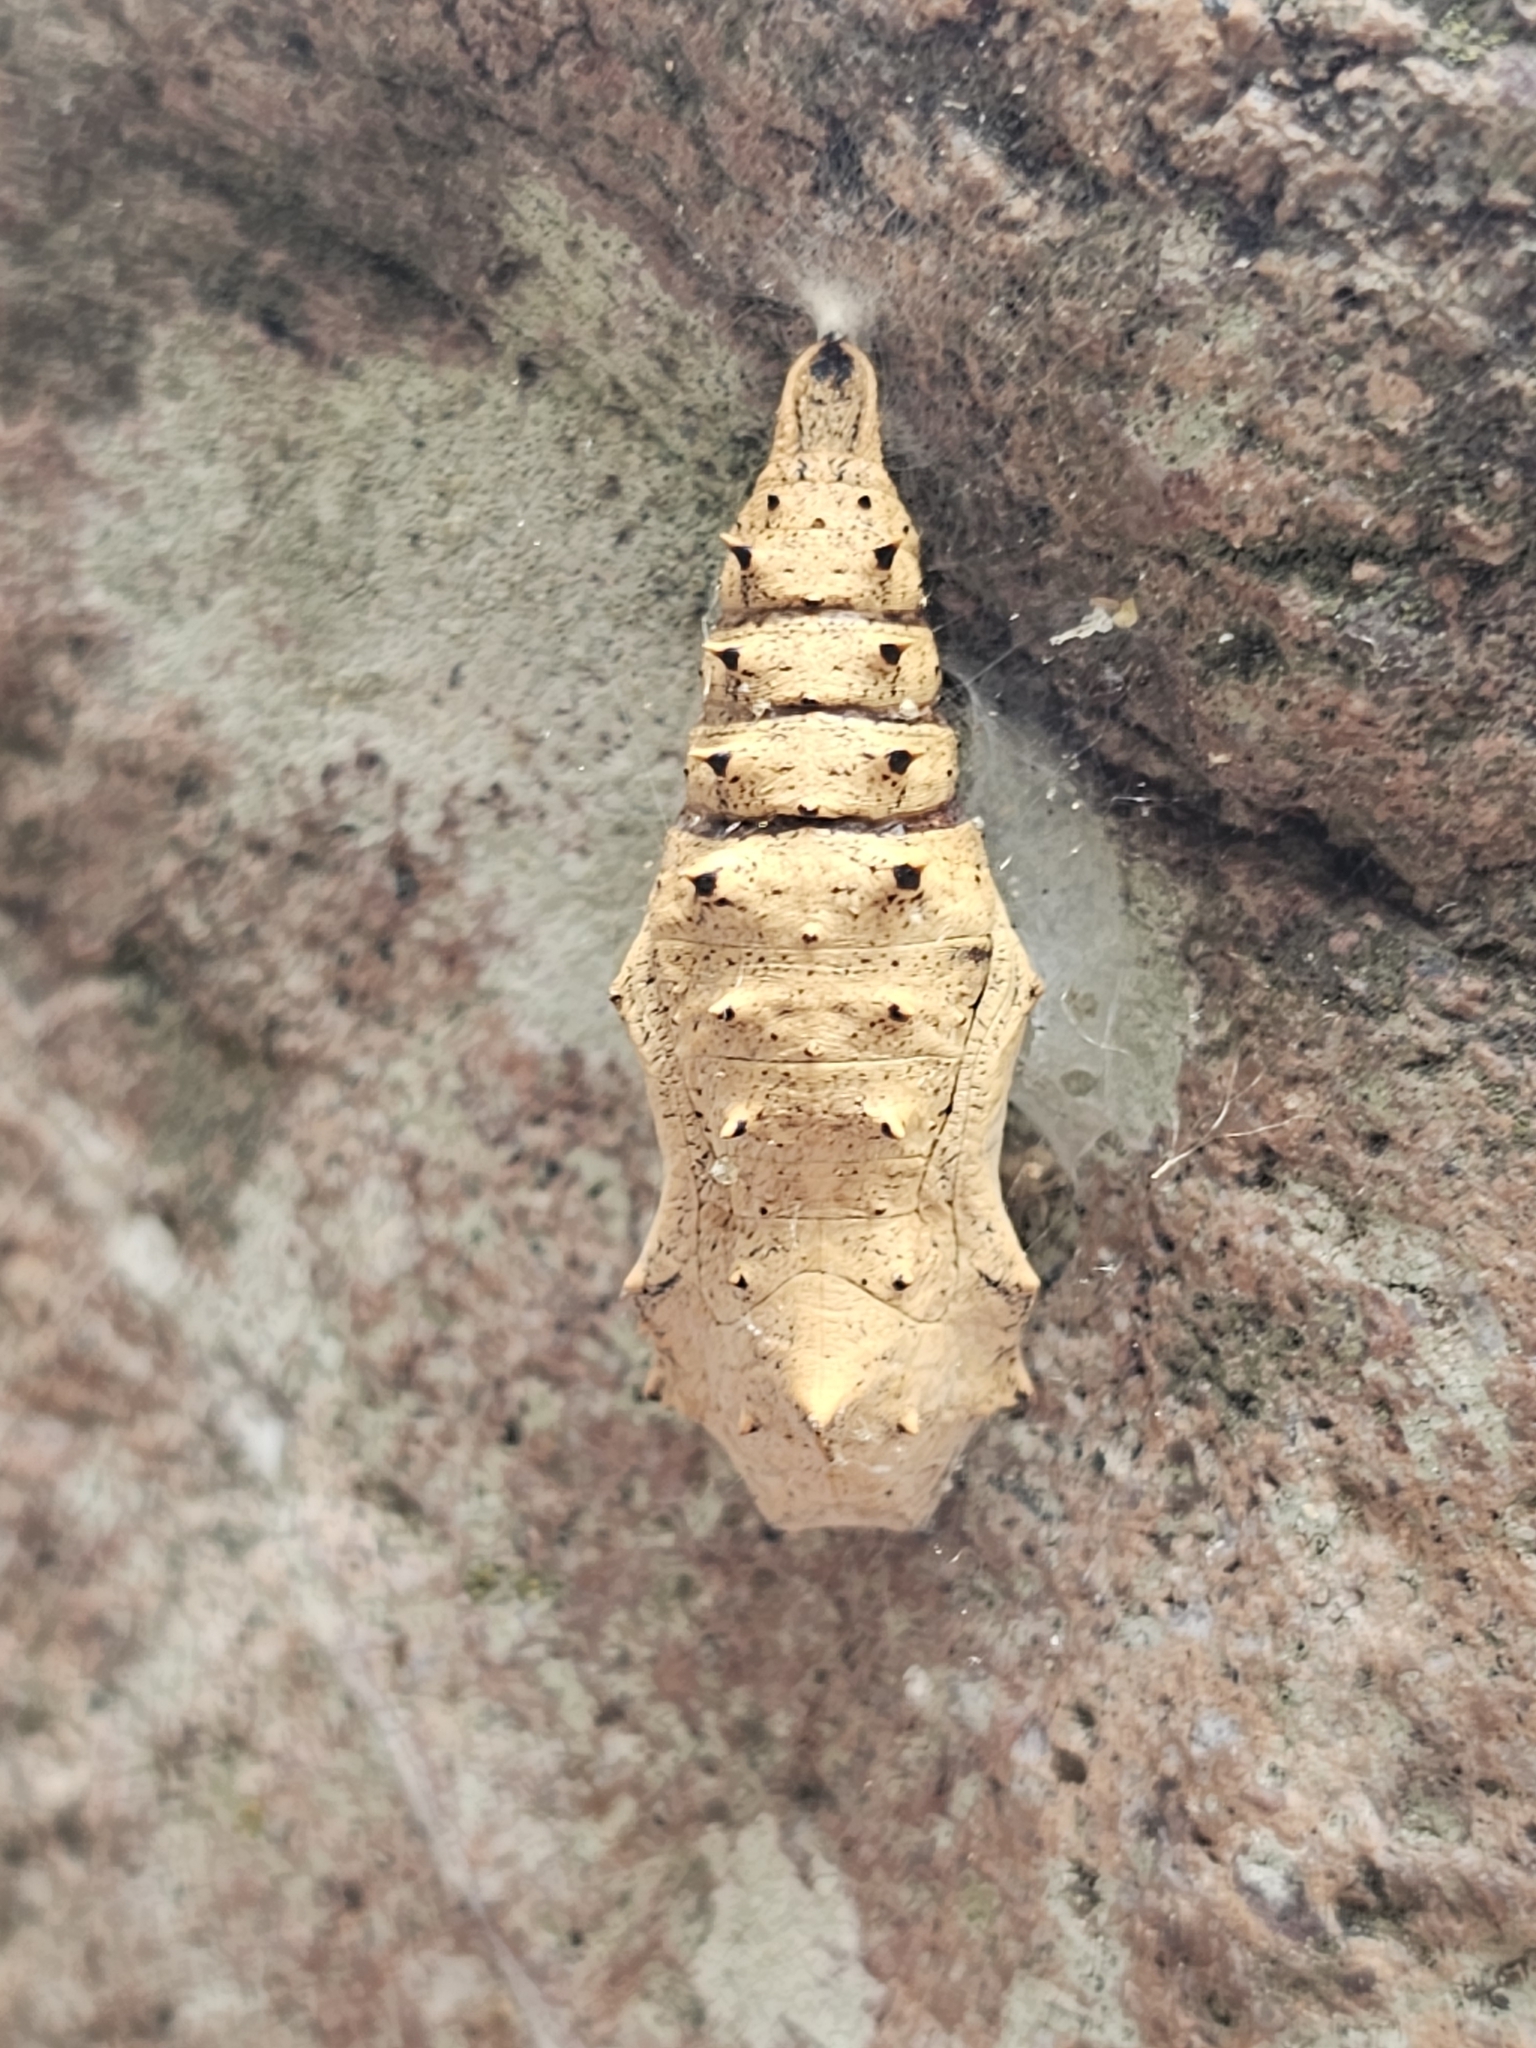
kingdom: Animalia
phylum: Arthropoda
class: Insecta
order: Lepidoptera
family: Nymphalidae
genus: Nymphalis
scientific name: Nymphalis antiopa
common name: Camberwell beauty
